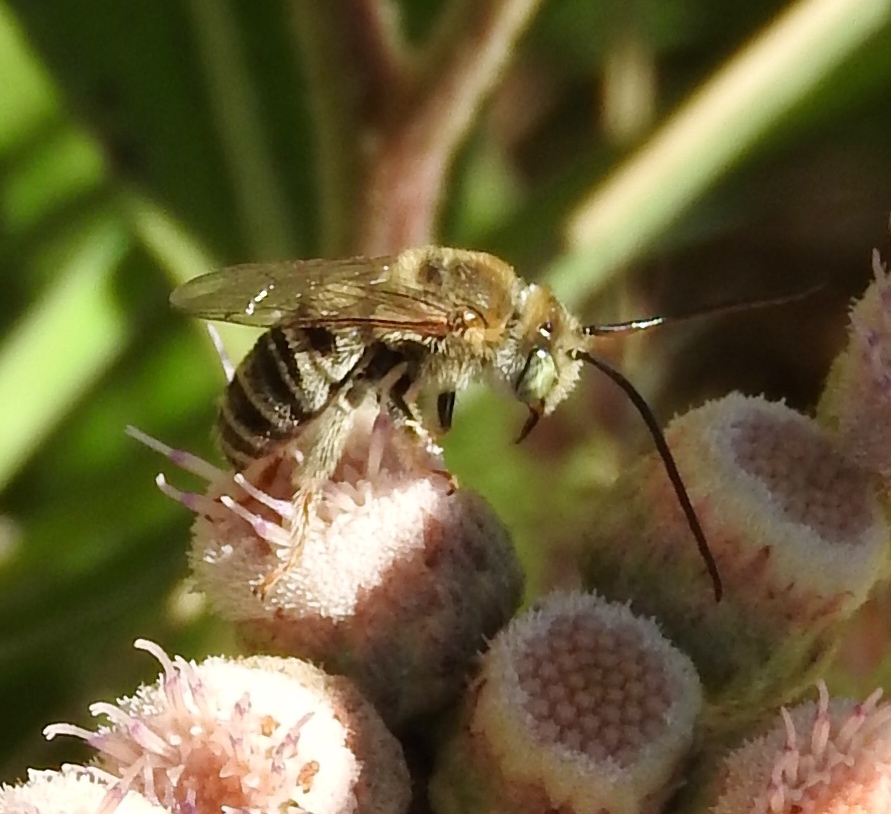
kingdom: Animalia
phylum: Arthropoda
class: Insecta
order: Hymenoptera
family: Apidae
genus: Apidae
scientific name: Apidae
